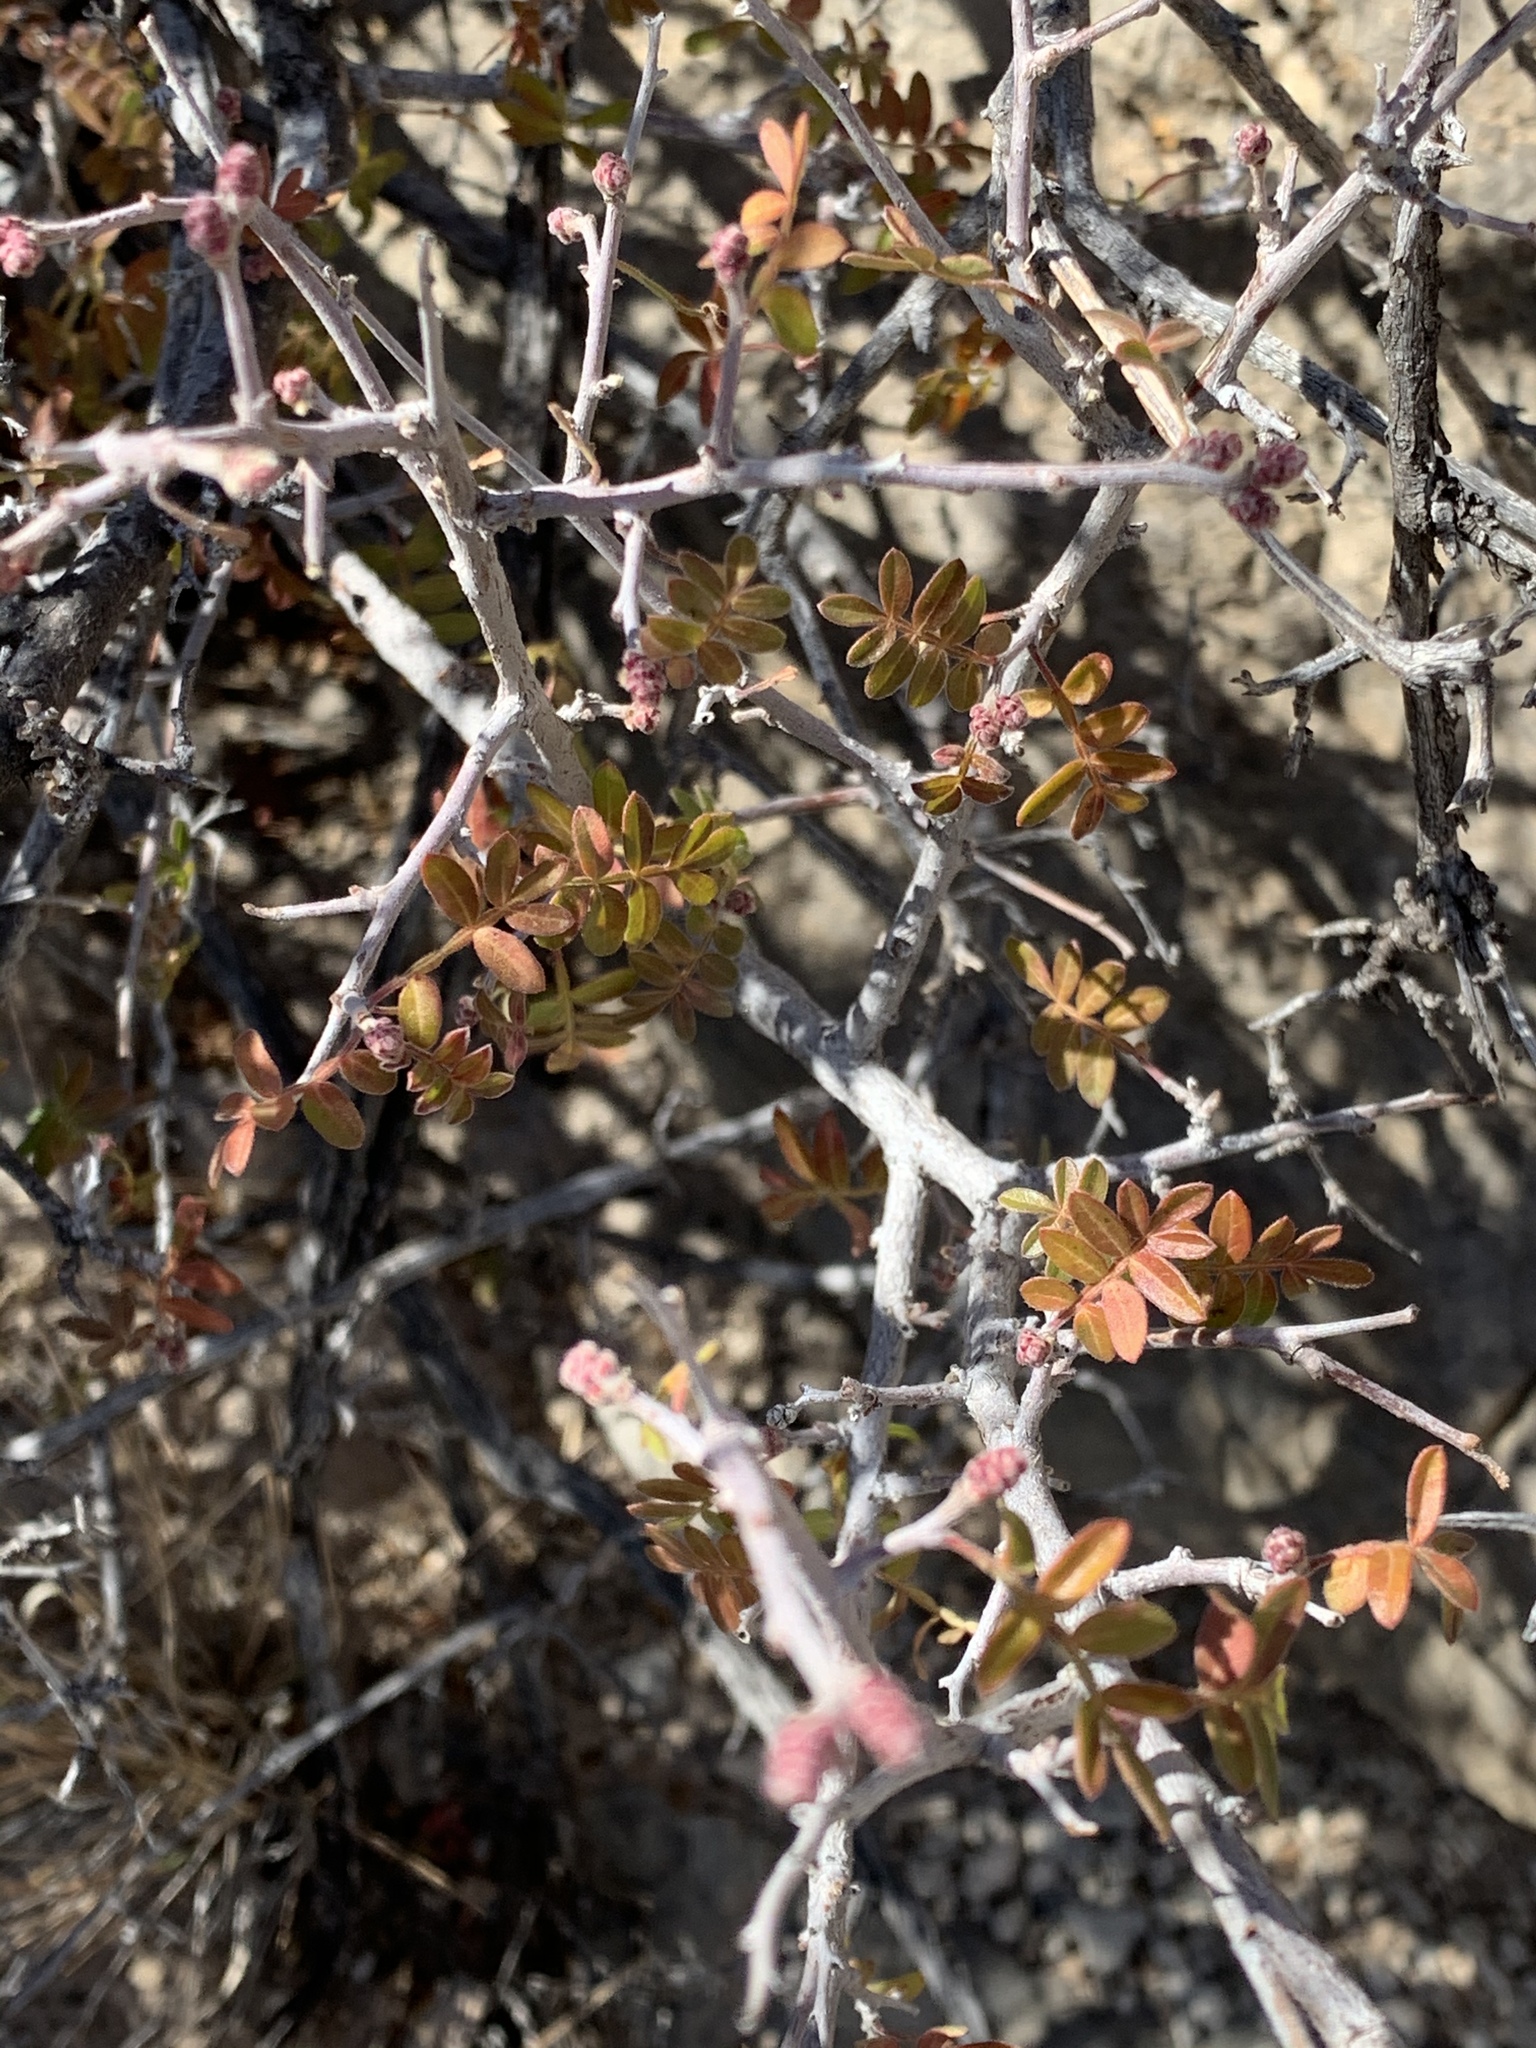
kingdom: Plantae
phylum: Tracheophyta
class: Magnoliopsida
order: Sapindales
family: Anacardiaceae
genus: Rhus
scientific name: Rhus microphylla
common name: Desert sumac
